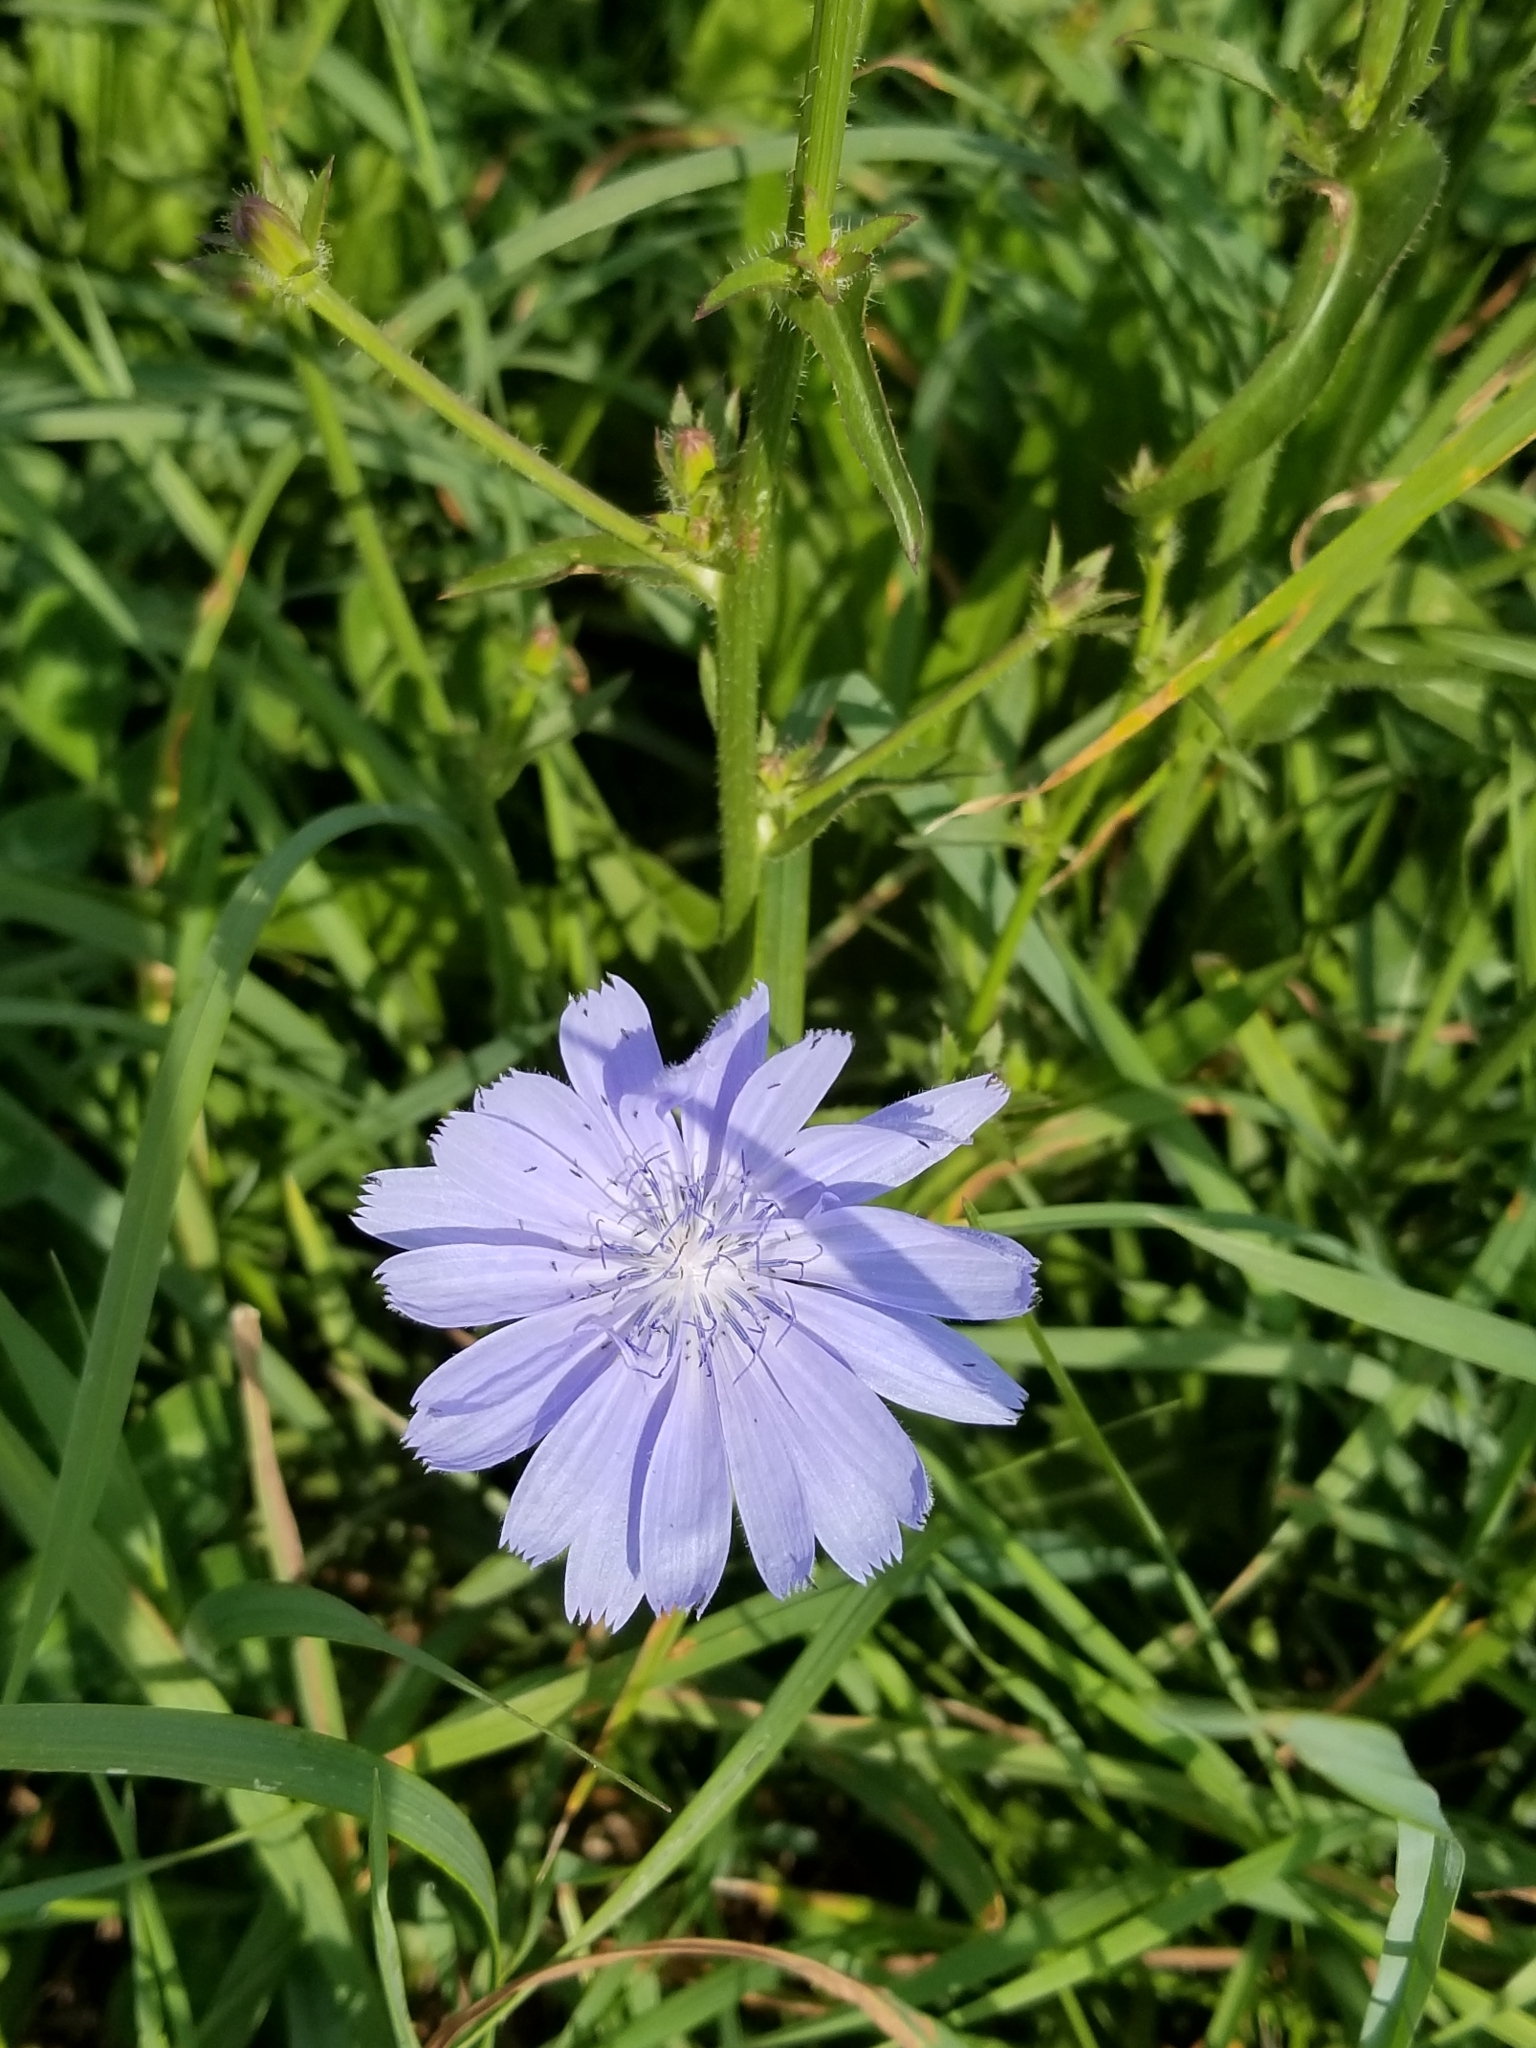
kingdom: Plantae
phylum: Tracheophyta
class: Magnoliopsida
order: Asterales
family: Asteraceae
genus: Cichorium
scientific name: Cichorium intybus
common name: Chicory
